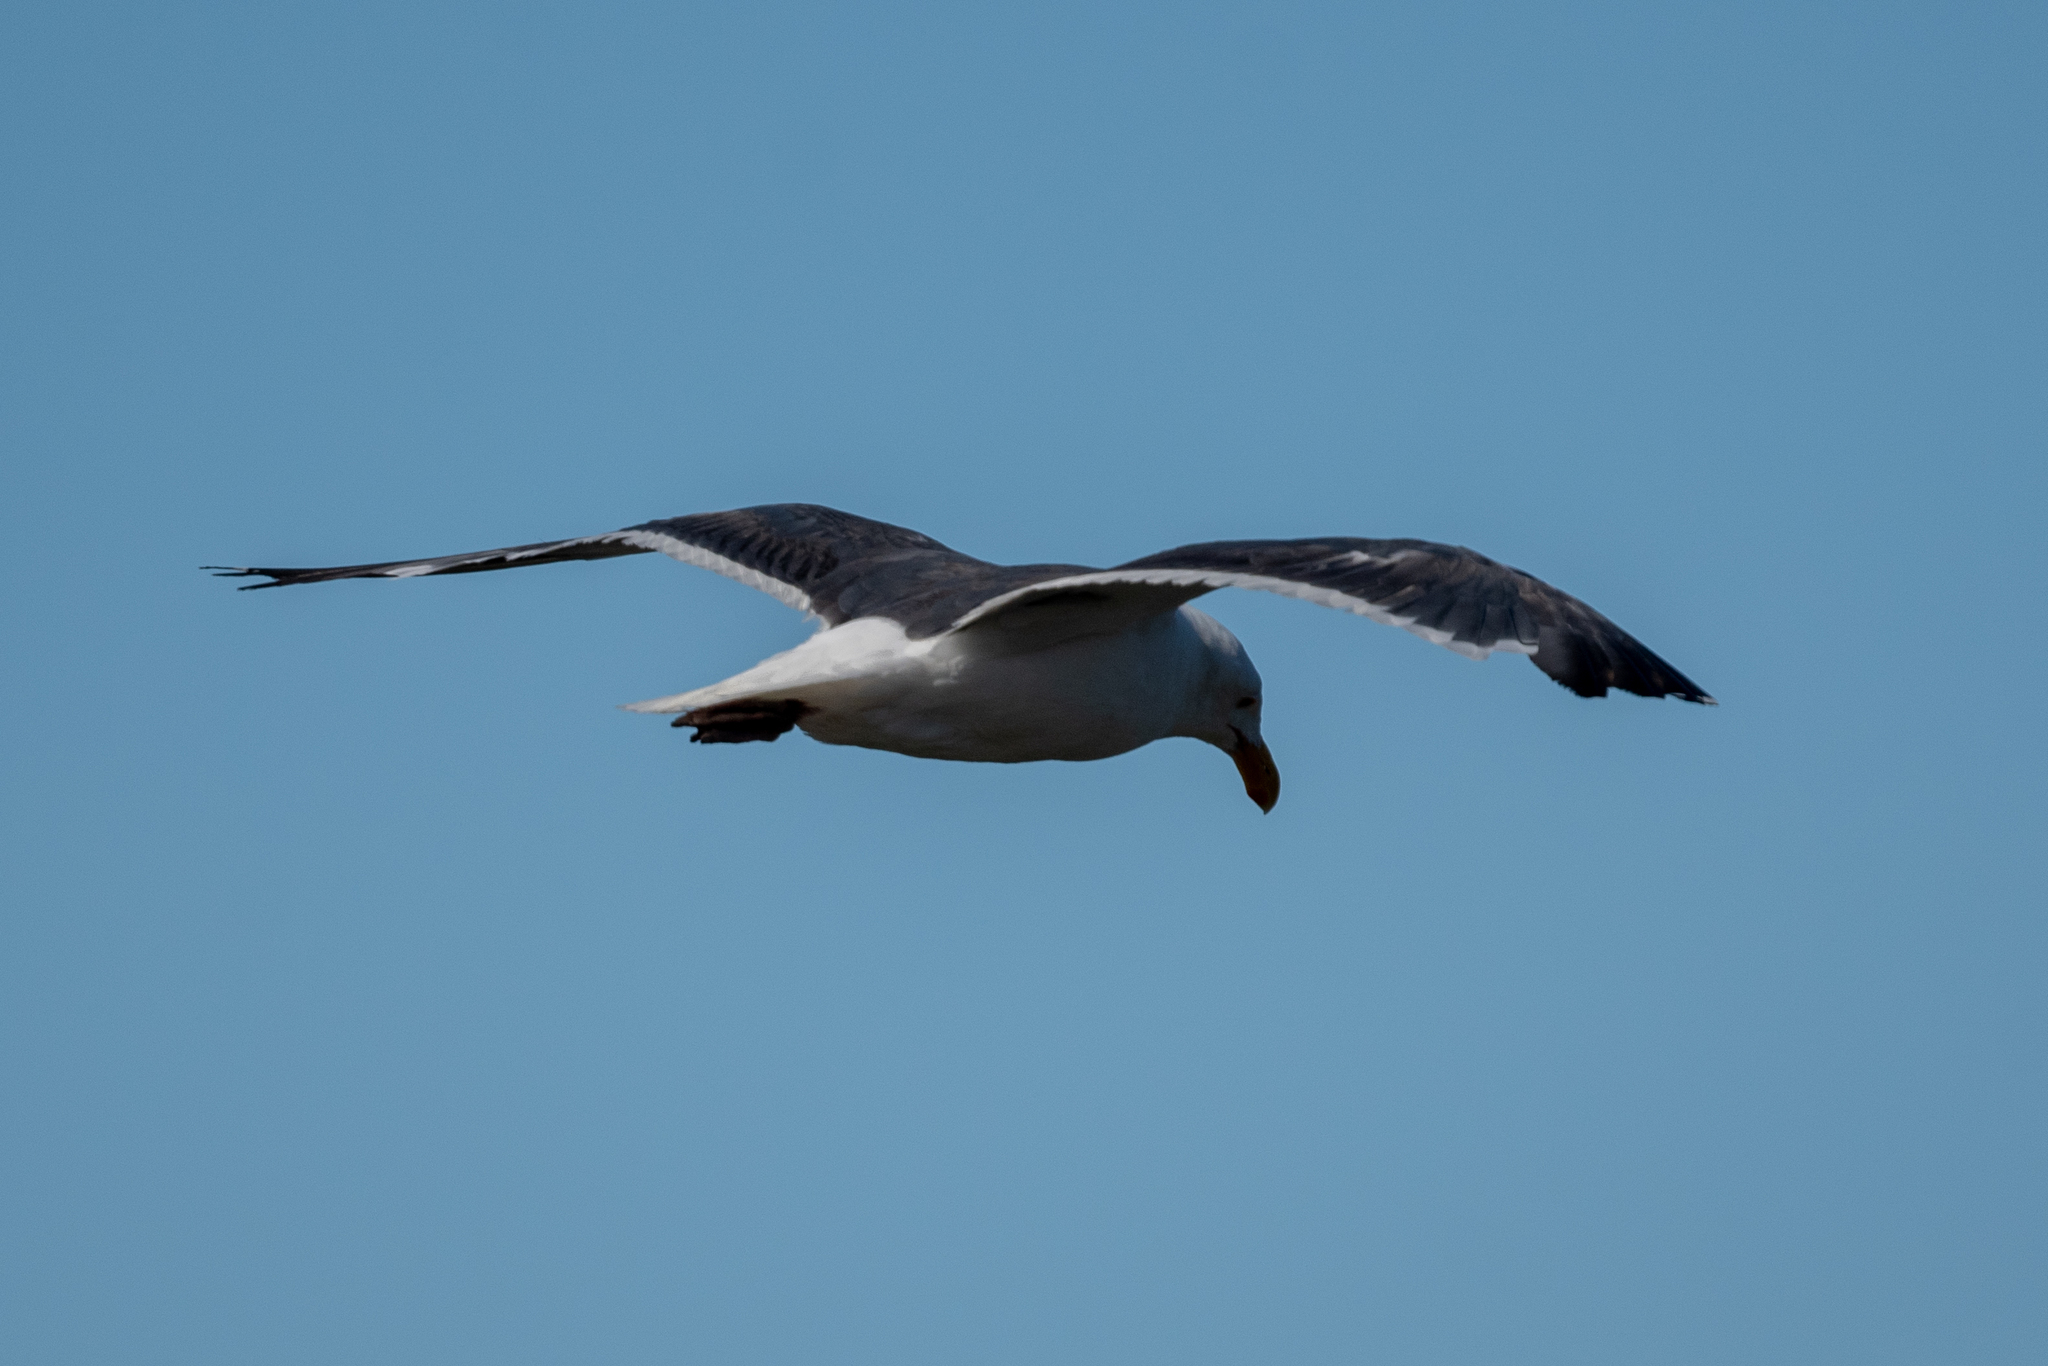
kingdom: Animalia
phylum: Chordata
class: Aves
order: Charadriiformes
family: Laridae
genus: Larus
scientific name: Larus occidentalis
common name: Western gull
